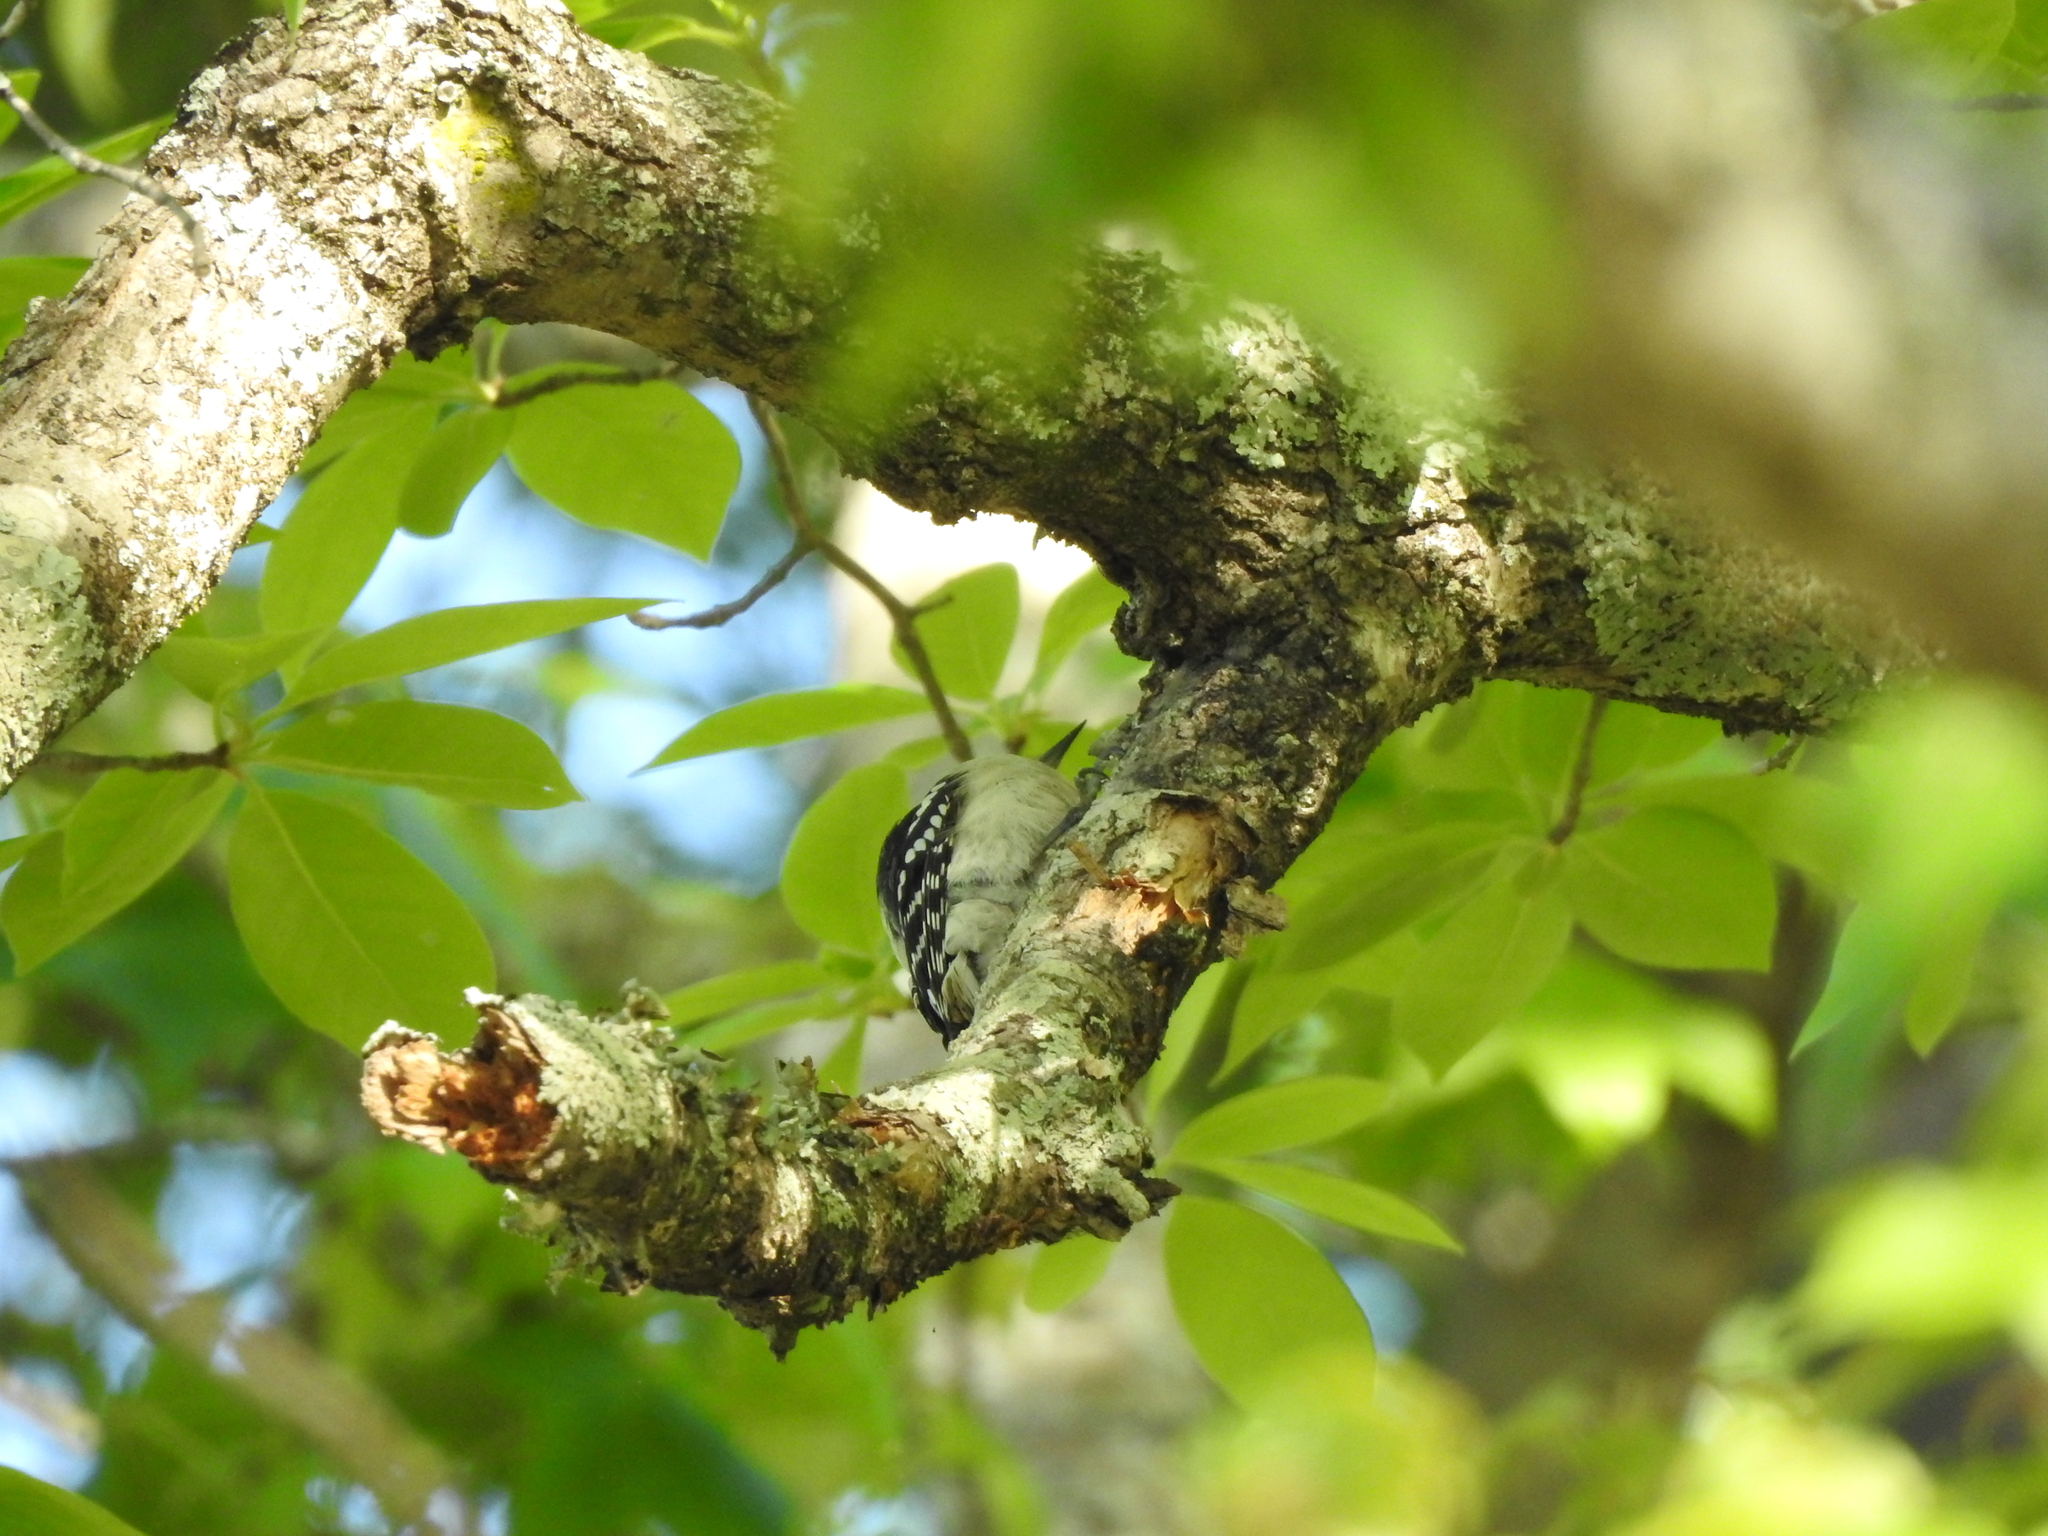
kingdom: Animalia
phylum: Chordata
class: Aves
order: Piciformes
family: Picidae
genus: Dryobates
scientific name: Dryobates pubescens
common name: Downy woodpecker
